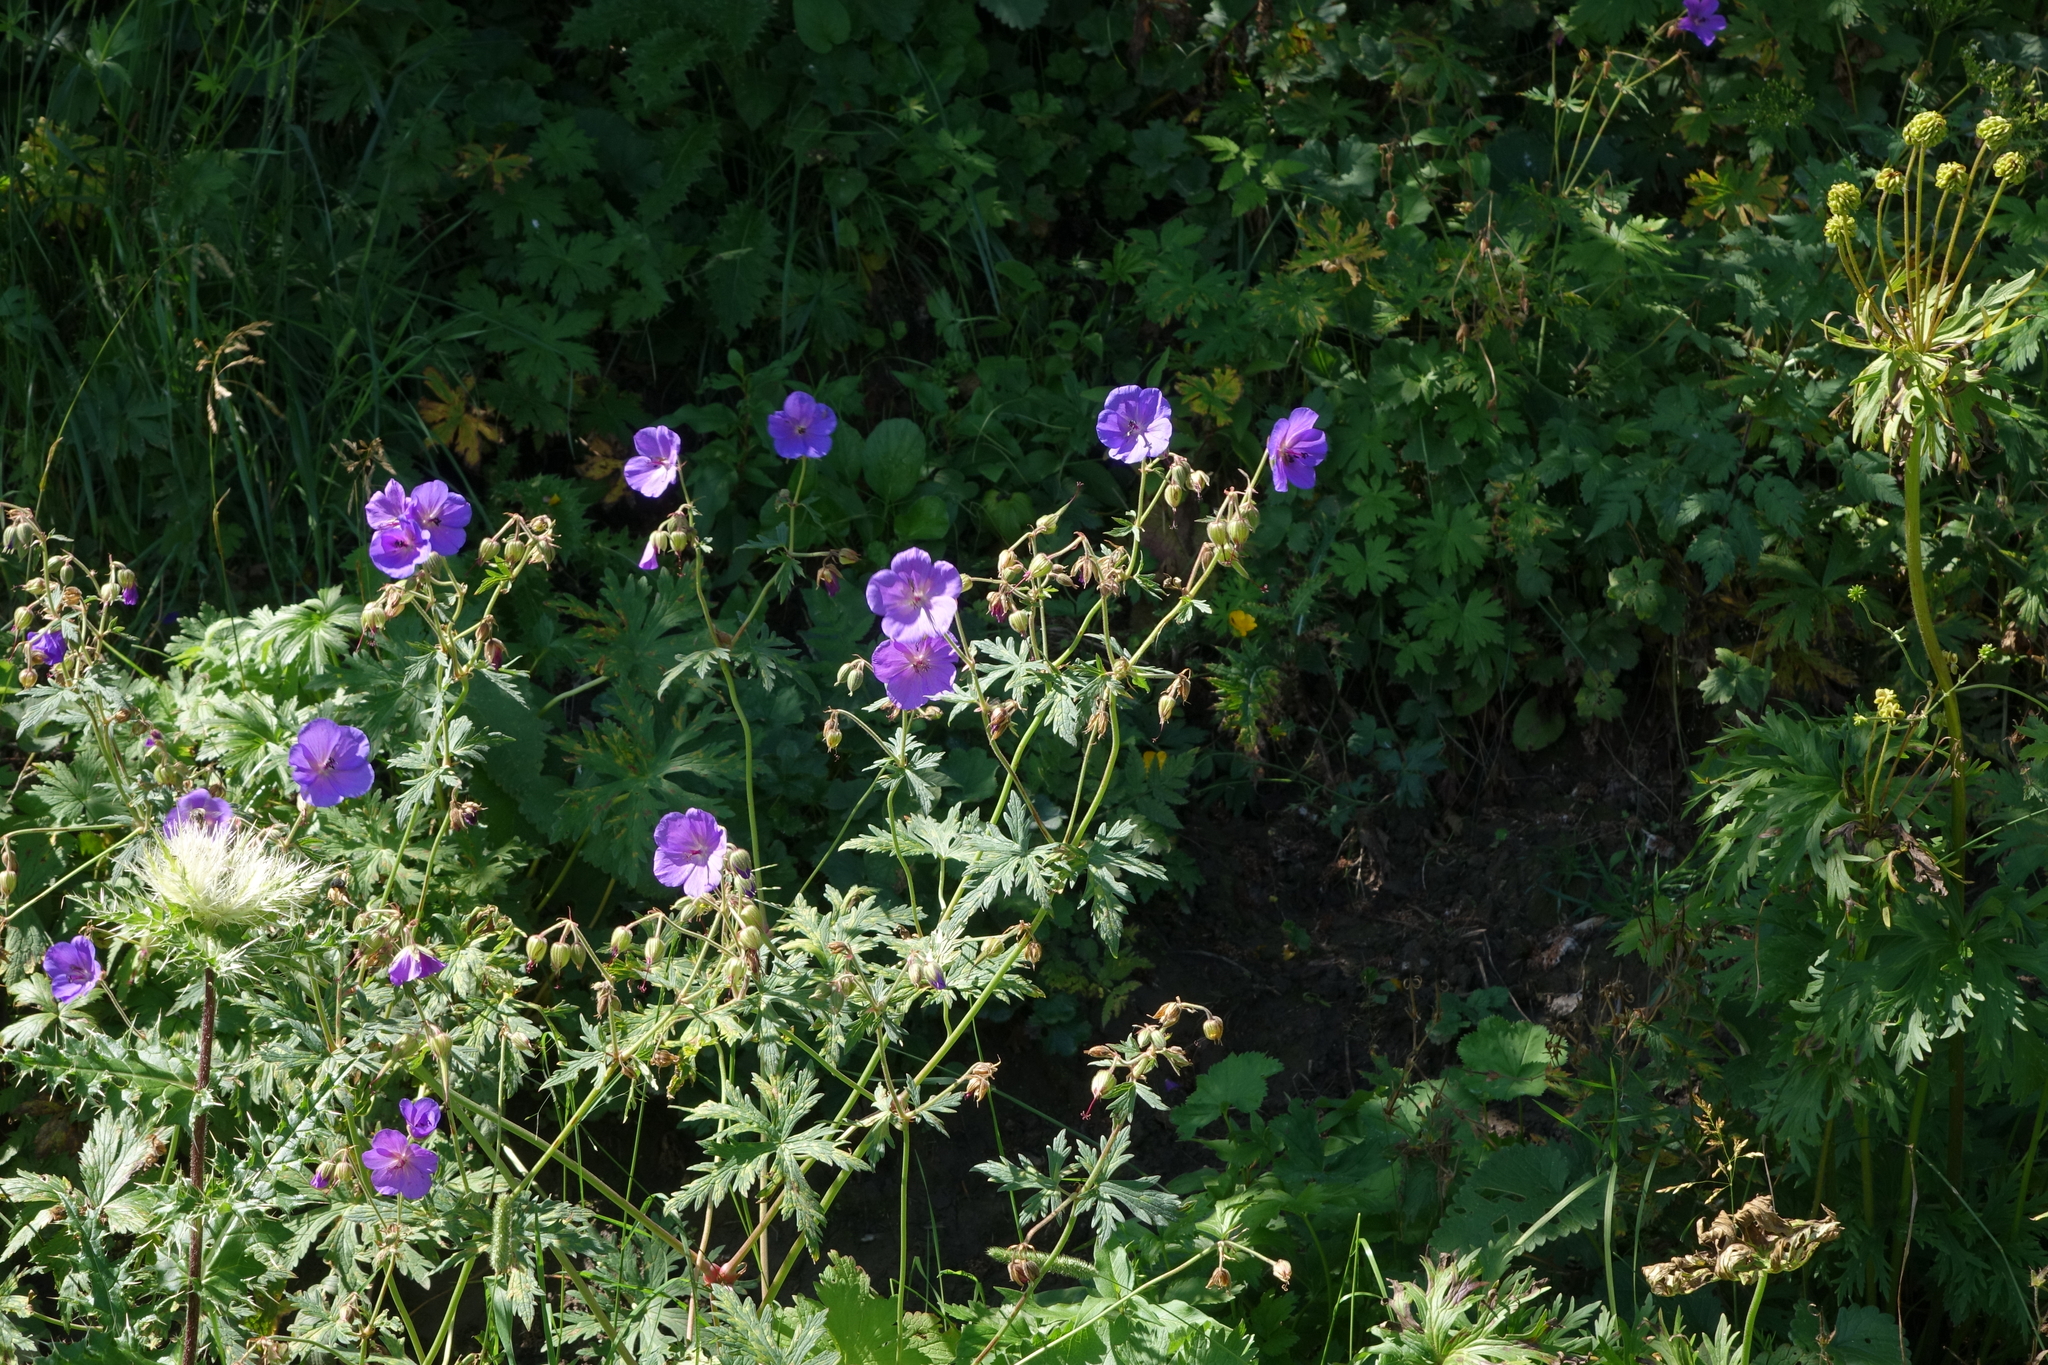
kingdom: Plantae
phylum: Tracheophyta
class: Magnoliopsida
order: Geraniales
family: Geraniaceae
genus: Geranium
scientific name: Geranium ruprechtii
